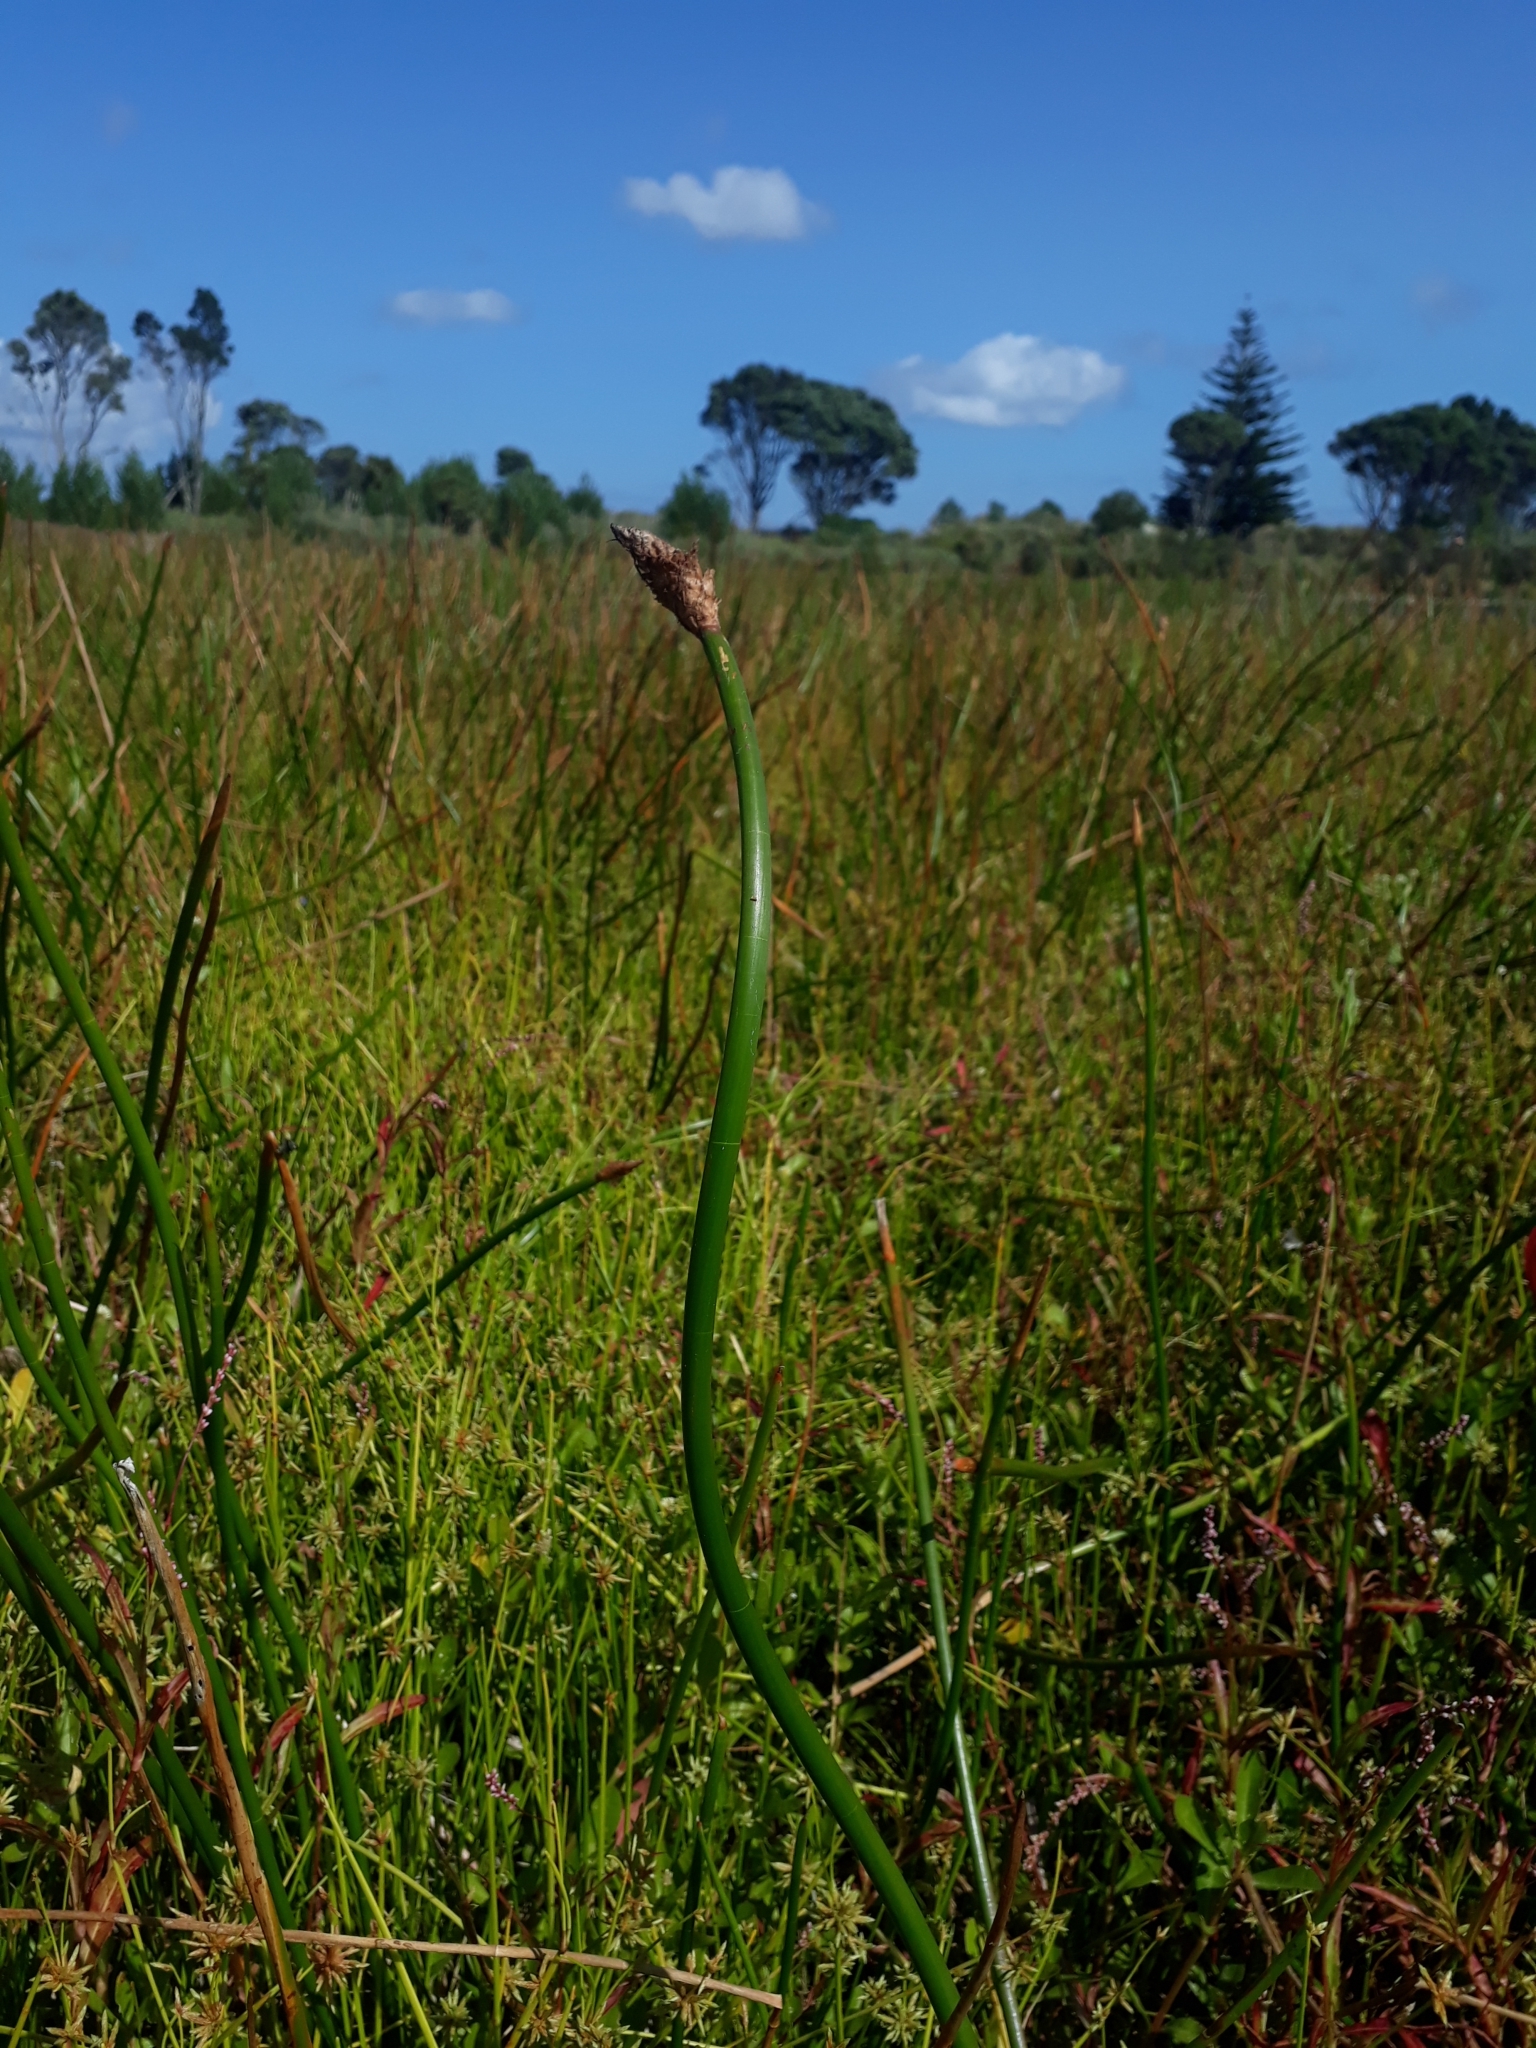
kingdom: Plantae
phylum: Tracheophyta
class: Liliopsida
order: Poales
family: Cyperaceae
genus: Eleocharis
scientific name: Eleocharis sphacelata
